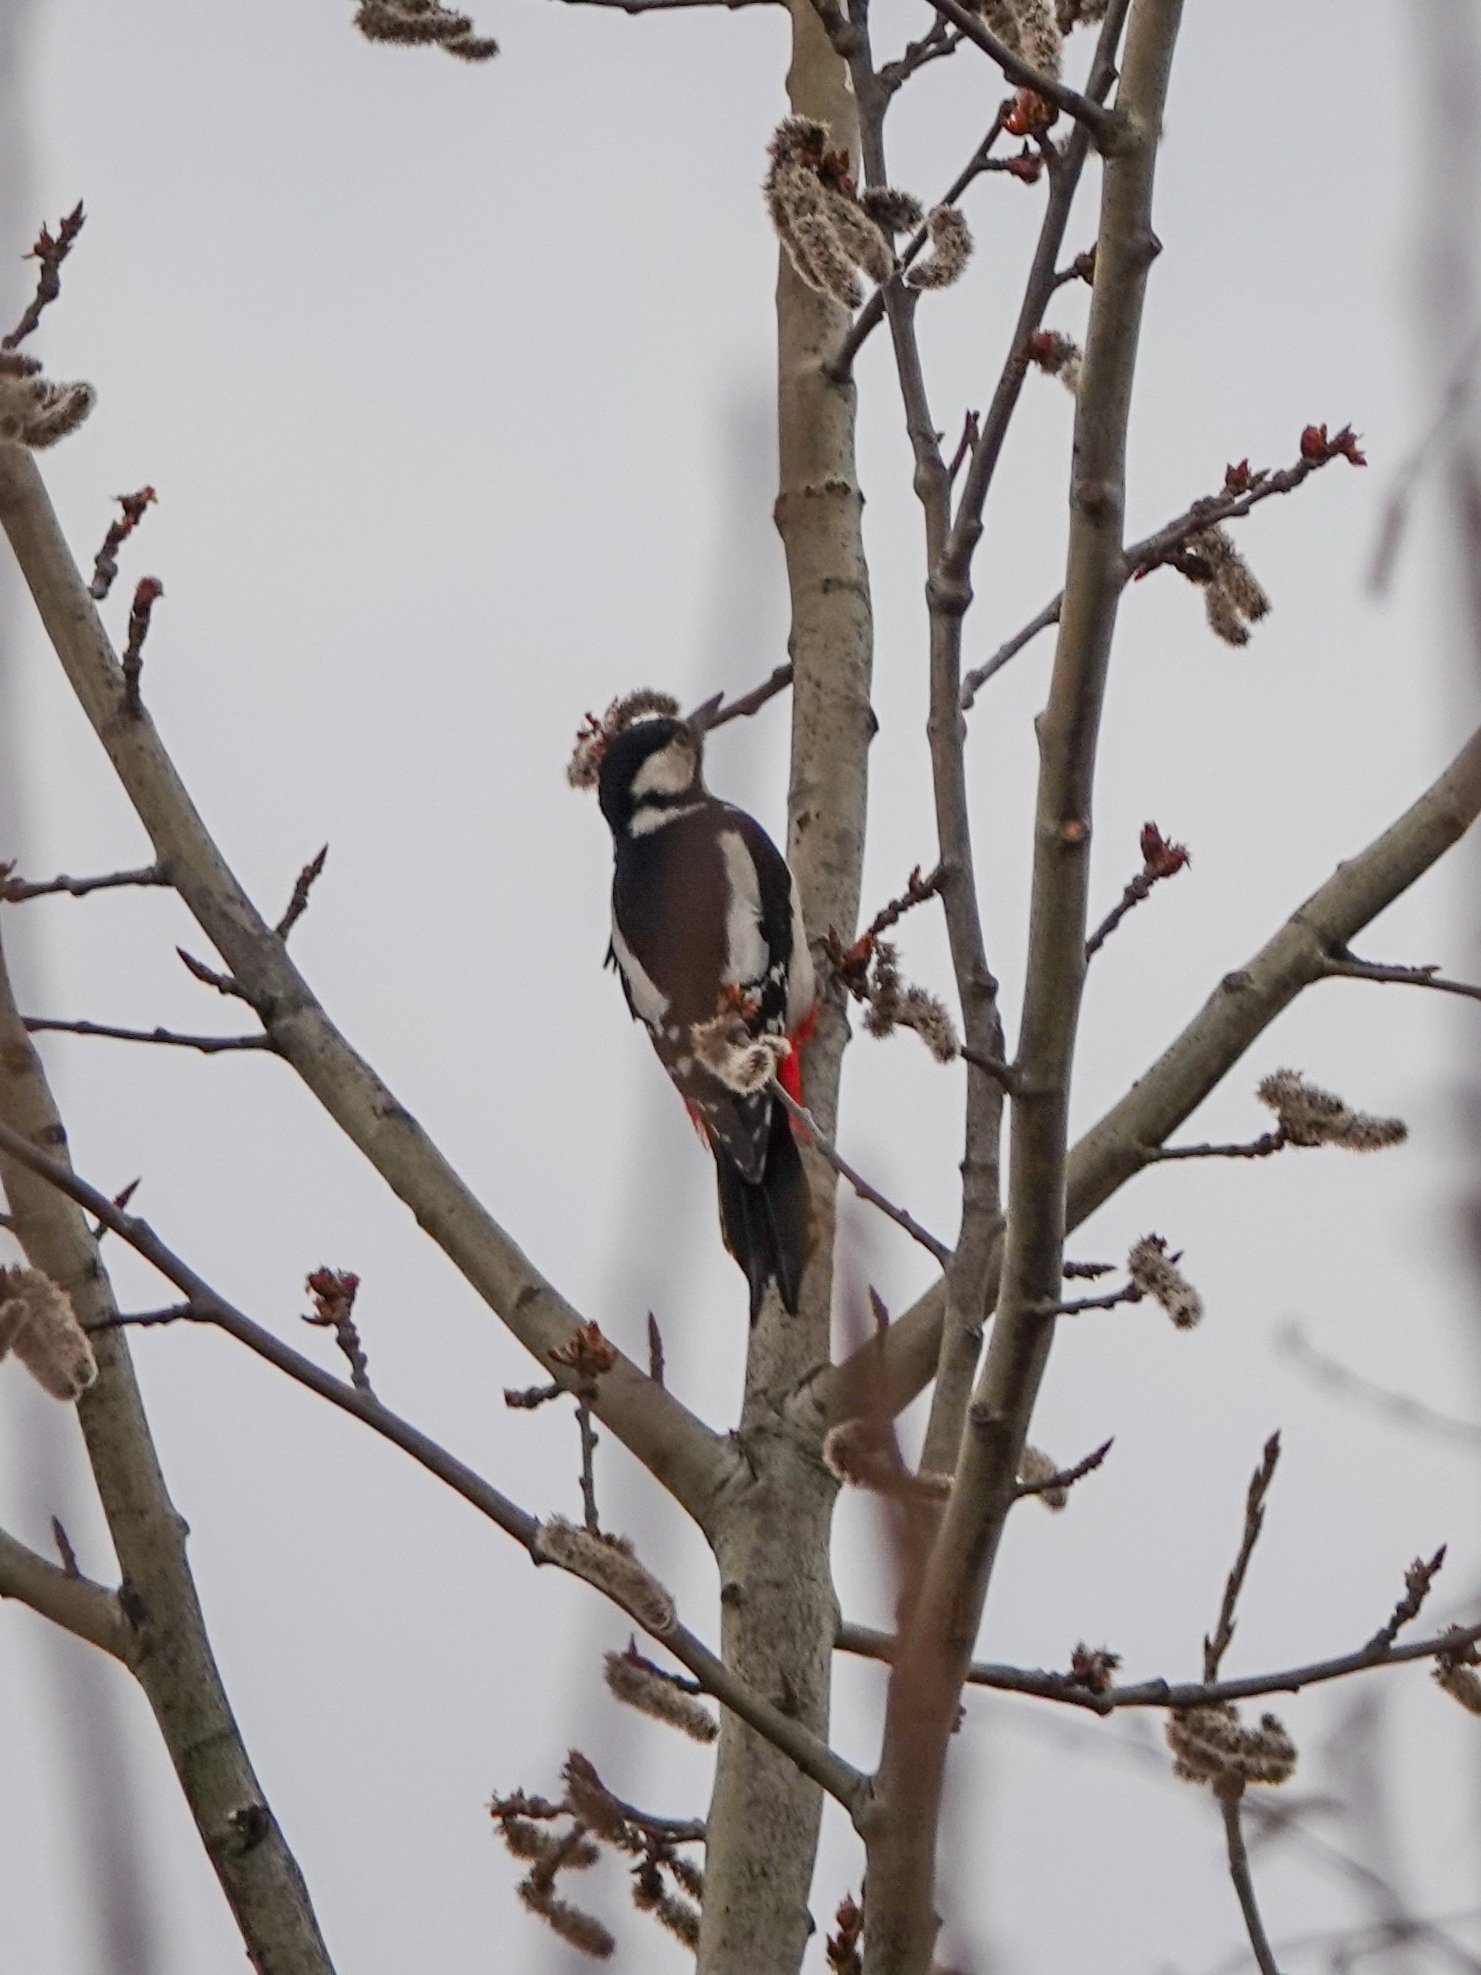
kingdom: Animalia
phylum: Chordata
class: Aves
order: Piciformes
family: Picidae
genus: Dendrocopos
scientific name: Dendrocopos major
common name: Great spotted woodpecker
